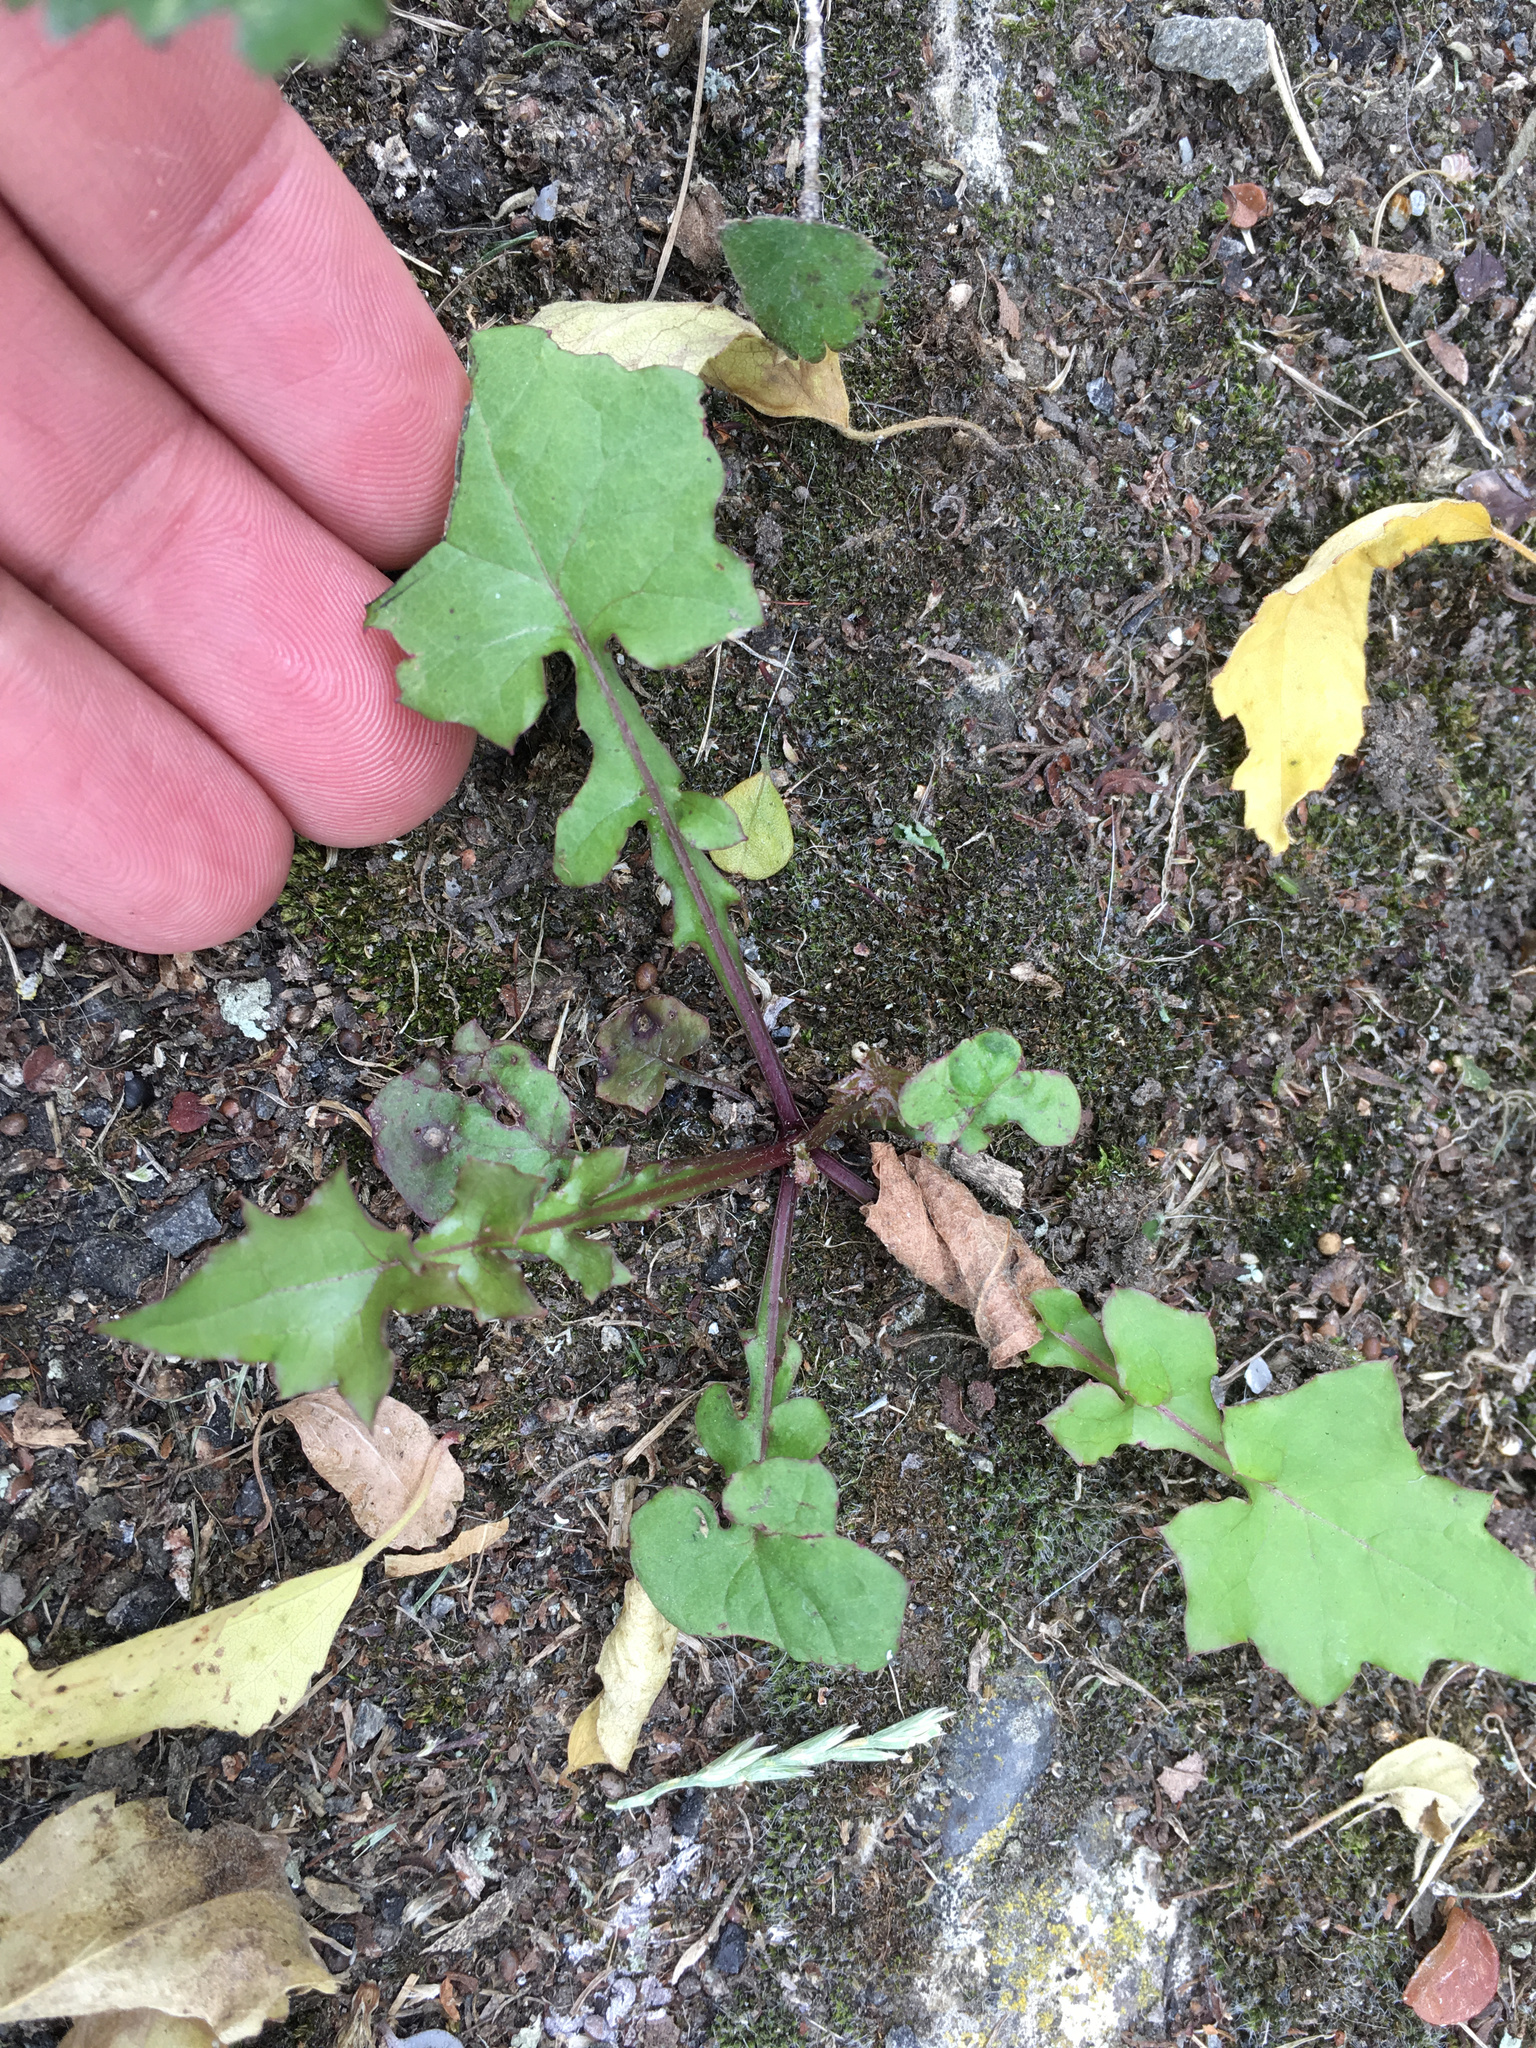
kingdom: Plantae
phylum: Tracheophyta
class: Magnoliopsida
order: Asterales
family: Asteraceae
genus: Mycelis
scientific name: Mycelis muralis
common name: Wall lettuce
